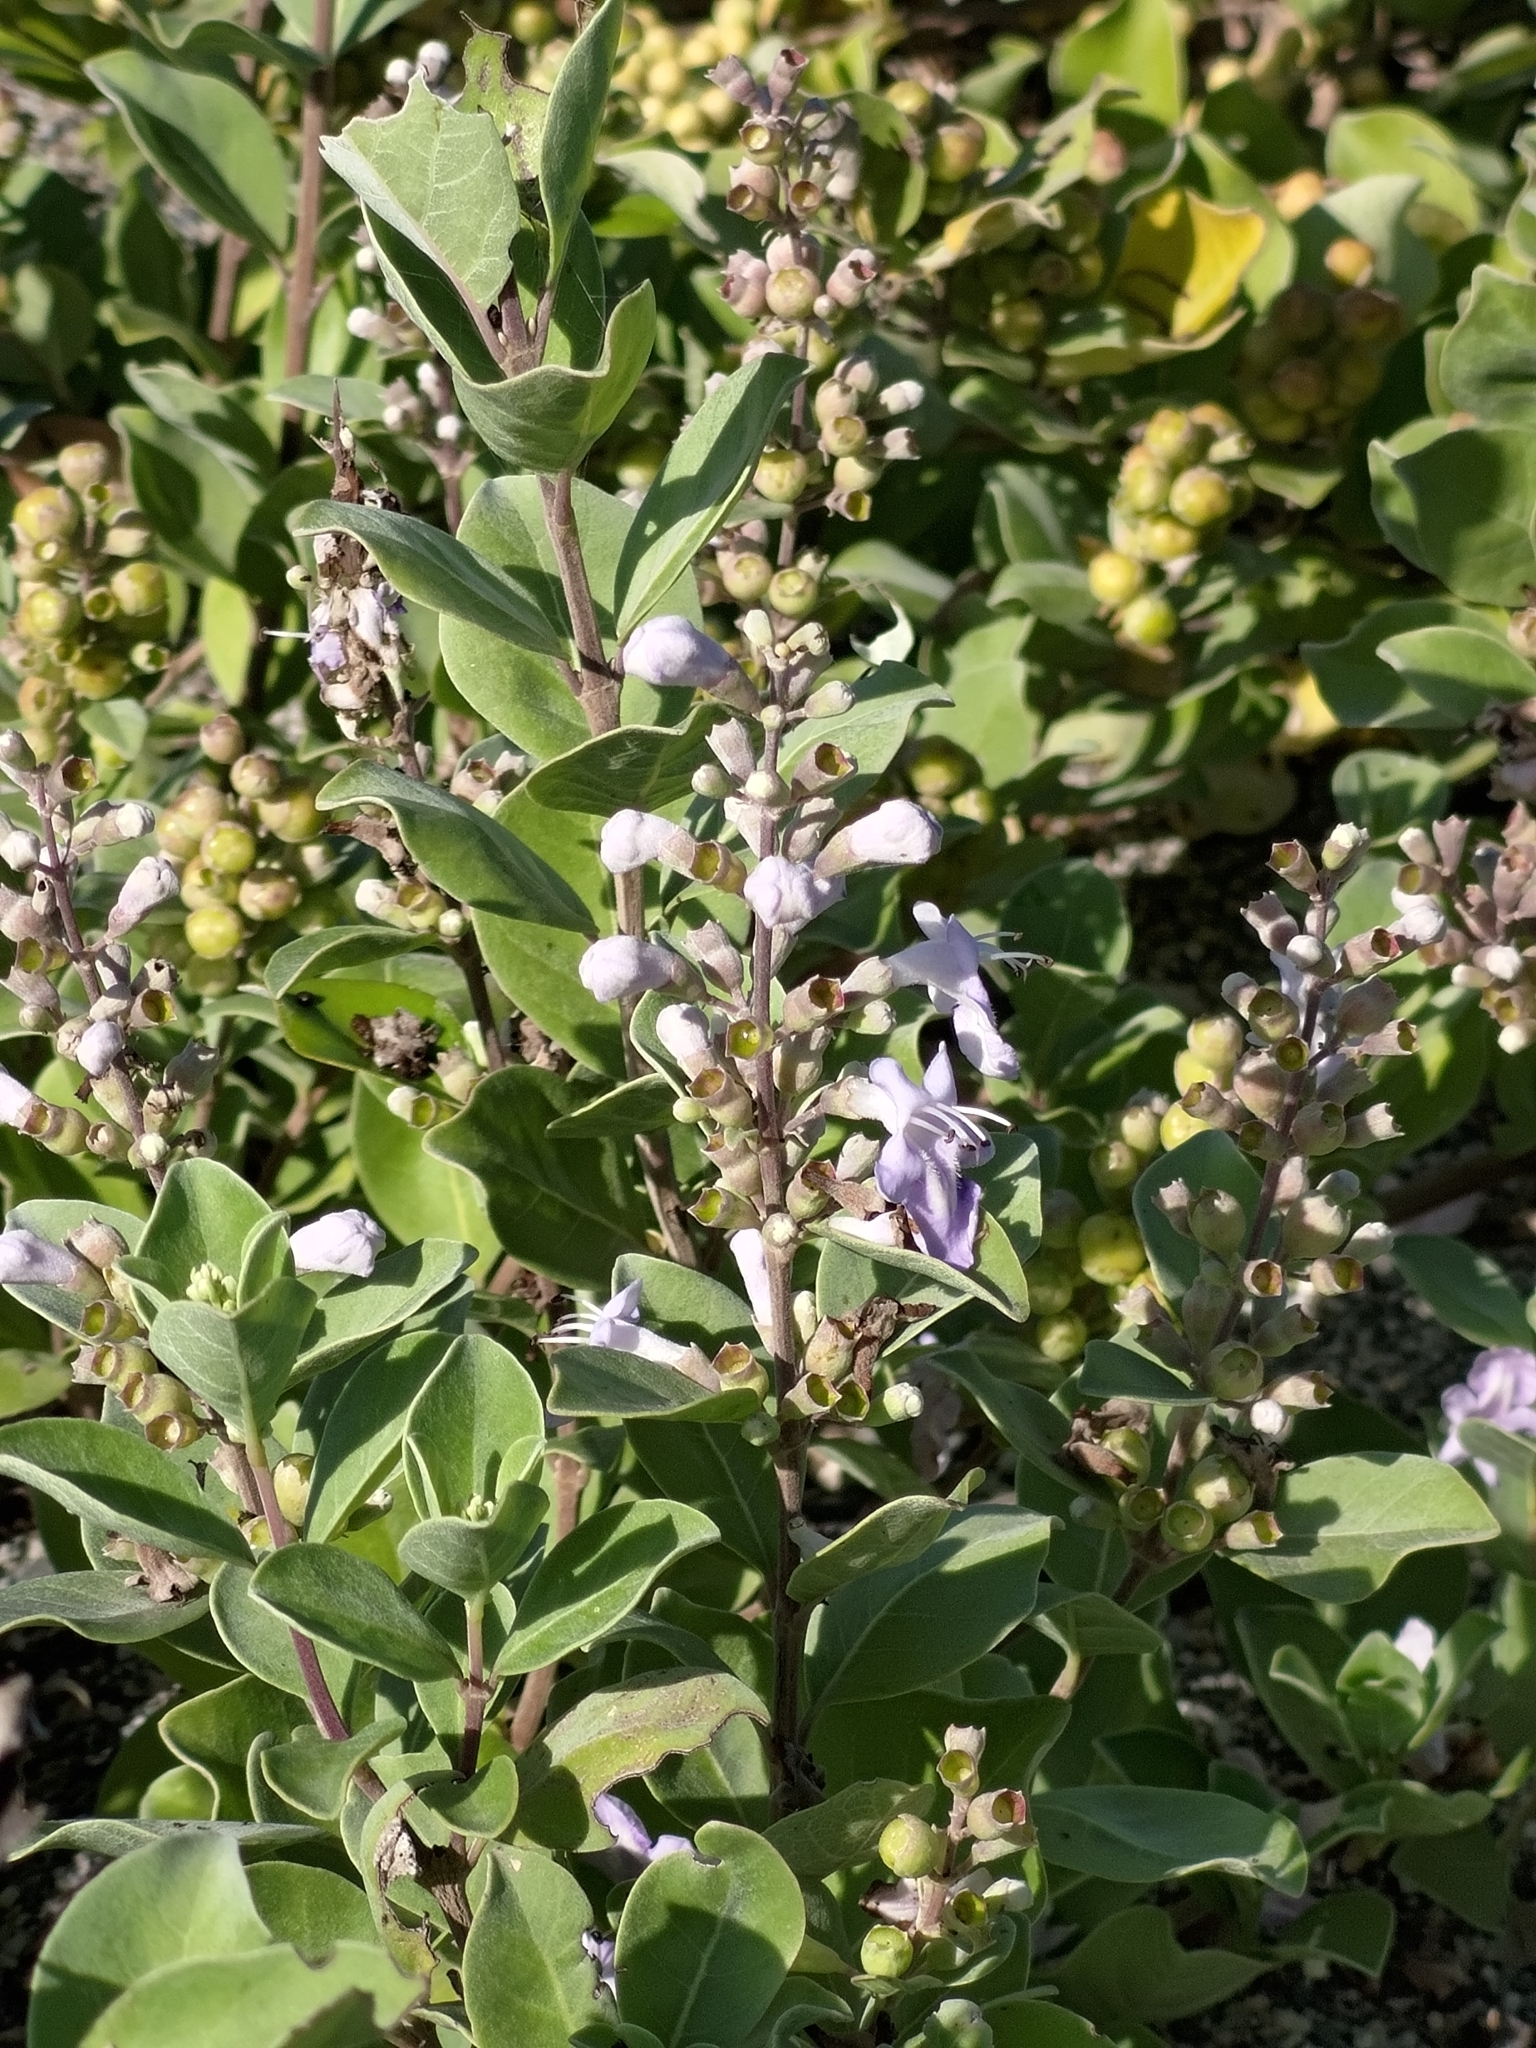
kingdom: Plantae
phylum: Tracheophyta
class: Magnoliopsida
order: Lamiales
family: Lamiaceae
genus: Vitex
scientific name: Vitex rotundifolia
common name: Beach vitex
